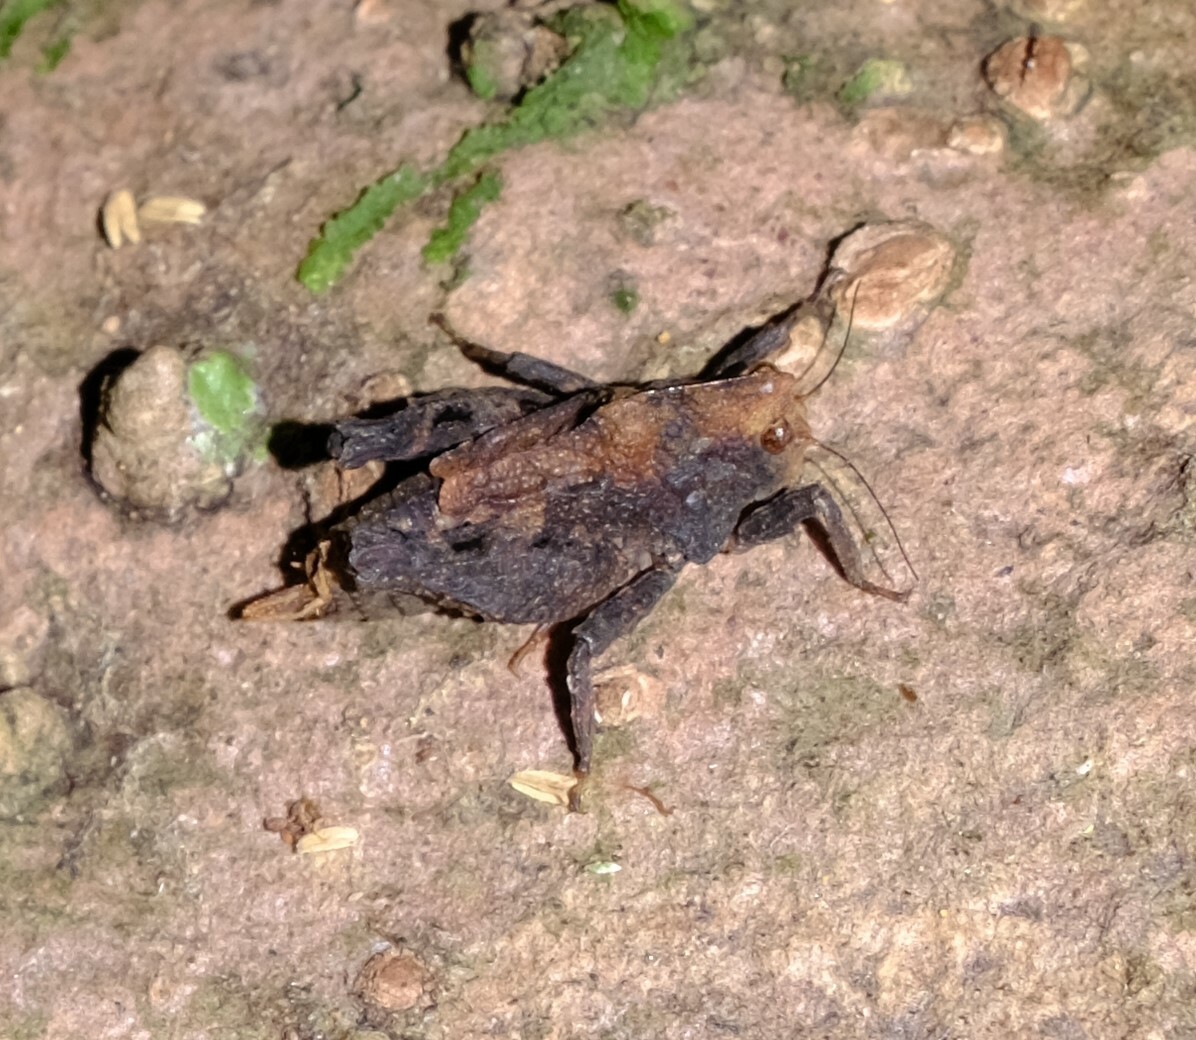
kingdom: Animalia
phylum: Arthropoda
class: Insecta
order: Orthoptera
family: Tetrigidae
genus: Paraselina
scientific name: Paraselina brunneri
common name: Angled australian barkhopper
